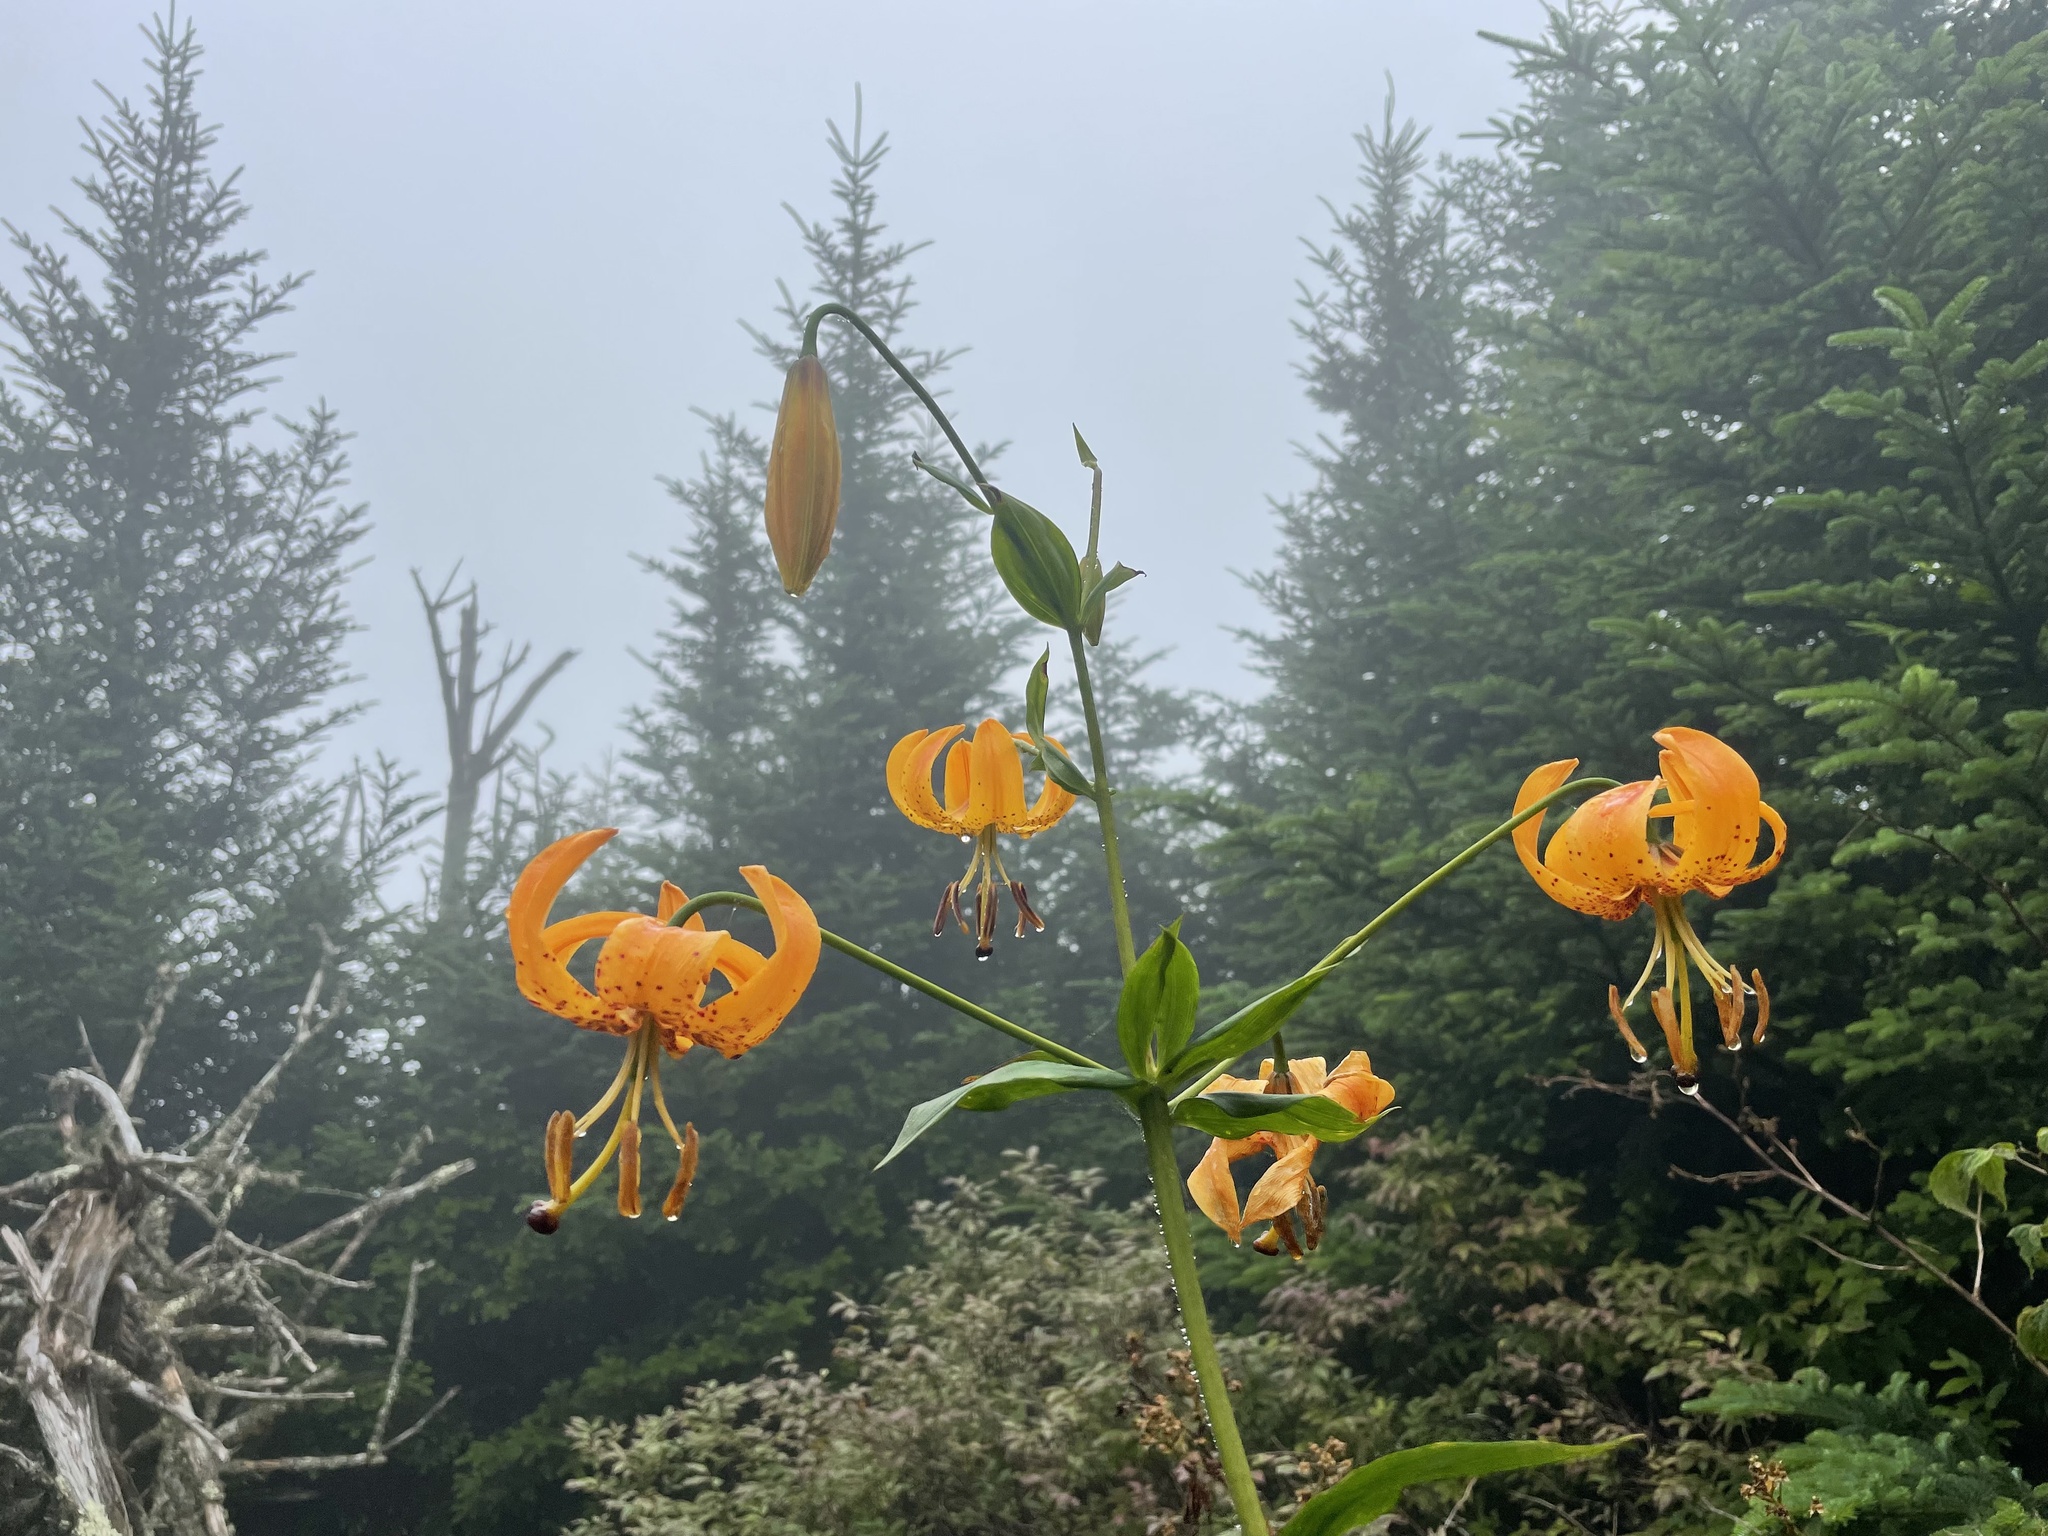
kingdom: Plantae
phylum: Tracheophyta
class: Liliopsida
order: Liliales
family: Liliaceae
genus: Lilium
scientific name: Lilium superbum
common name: American turk's-cap lily
